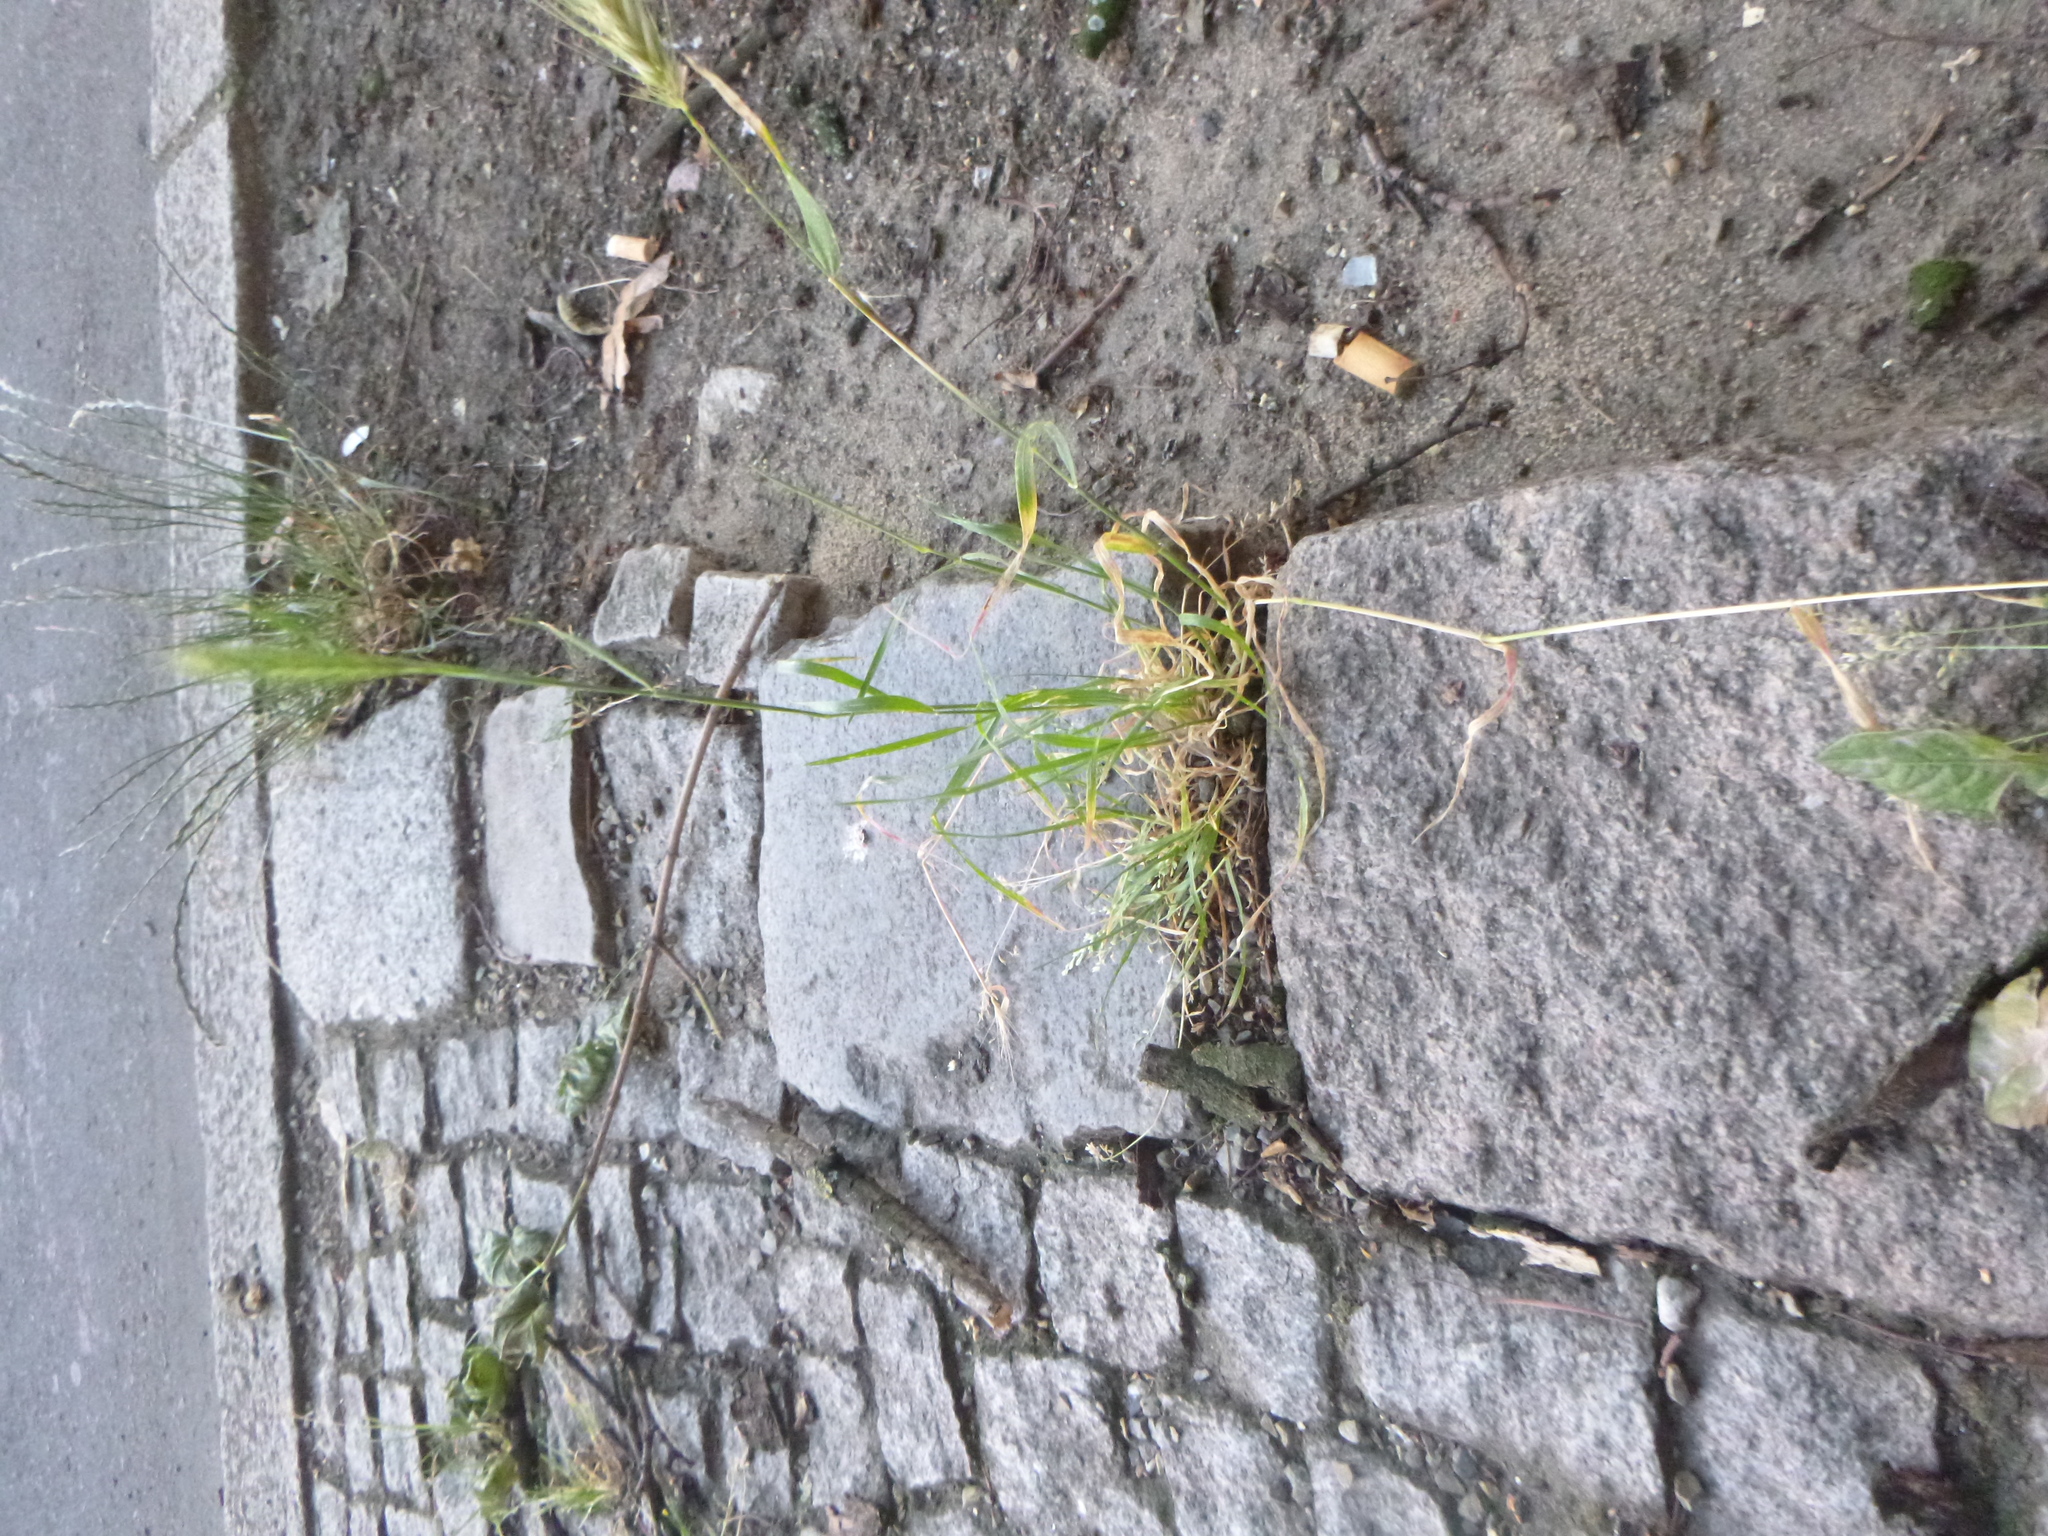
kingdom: Plantae
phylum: Tracheophyta
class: Liliopsida
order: Poales
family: Poaceae
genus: Hordeum
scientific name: Hordeum murinum
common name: Wall barley
